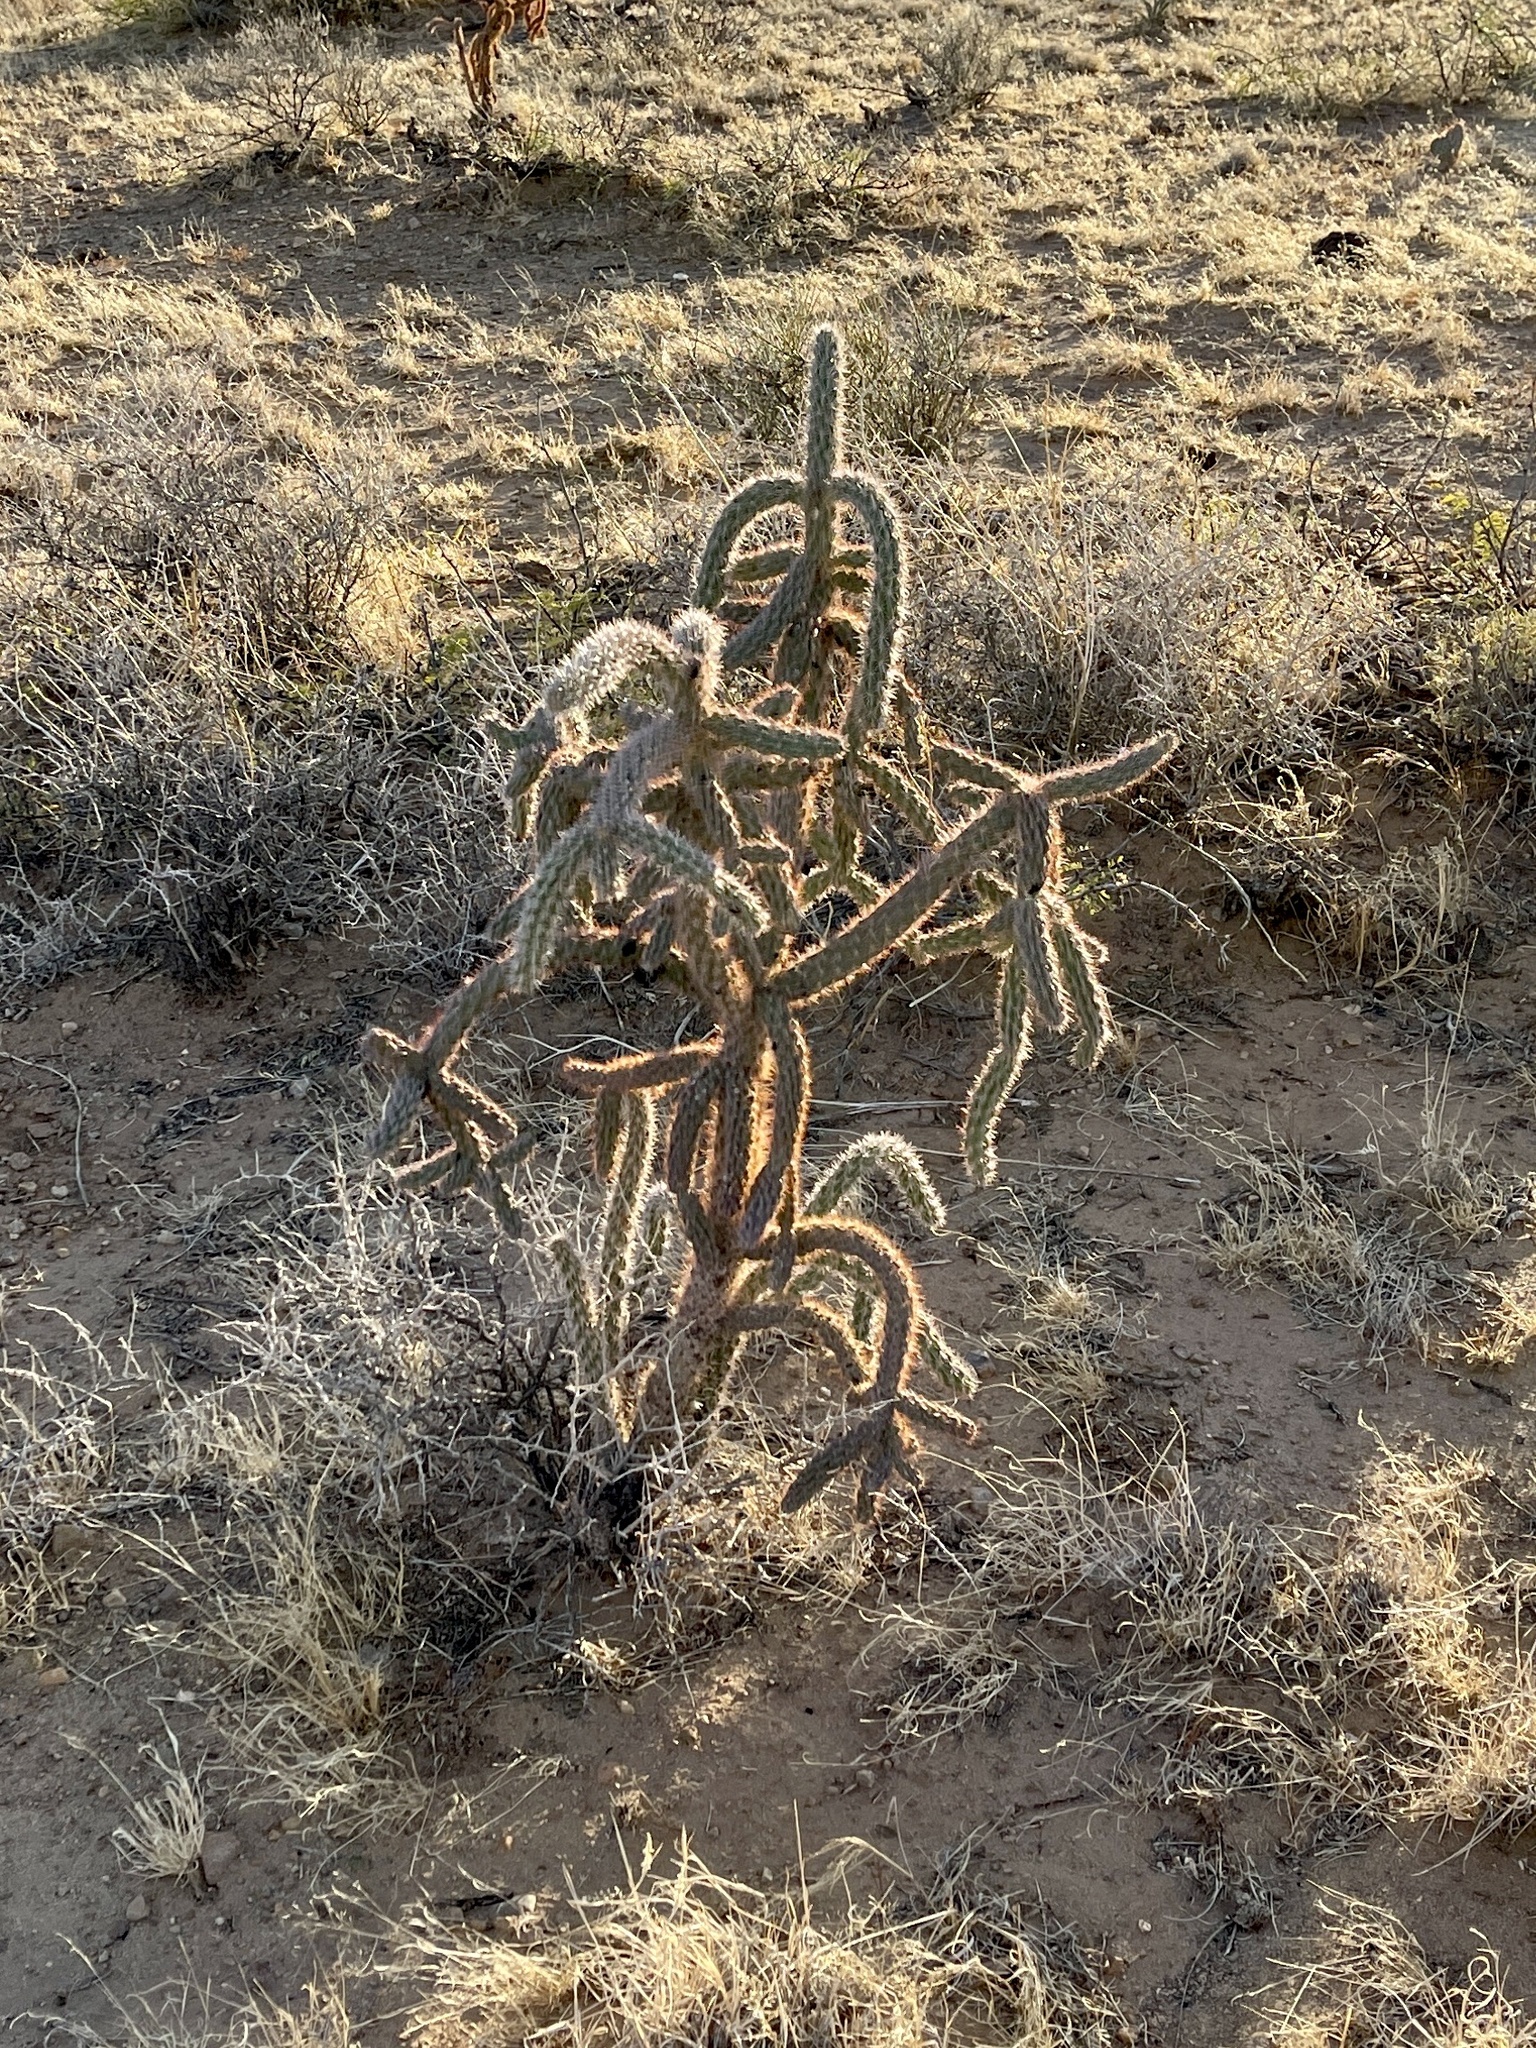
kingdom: Plantae
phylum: Tracheophyta
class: Magnoliopsida
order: Caryophyllales
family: Cactaceae
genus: Cylindropuntia
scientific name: Cylindropuntia imbricata
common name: Candelabrum cactus
